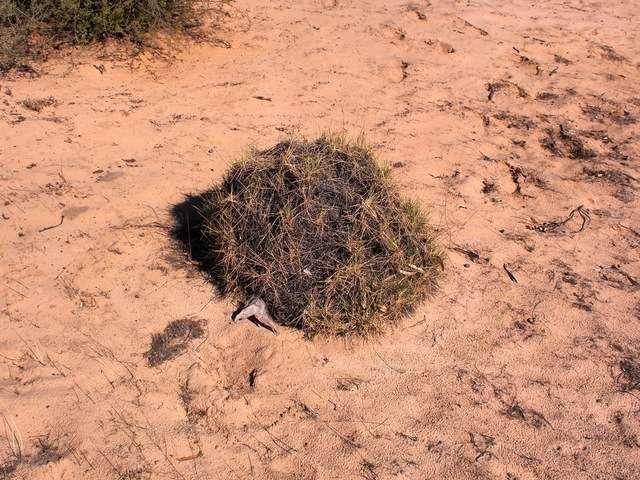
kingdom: Plantae
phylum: Tracheophyta
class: Liliopsida
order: Poales
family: Poaceae
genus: Triodia
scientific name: Triodia scariosa
